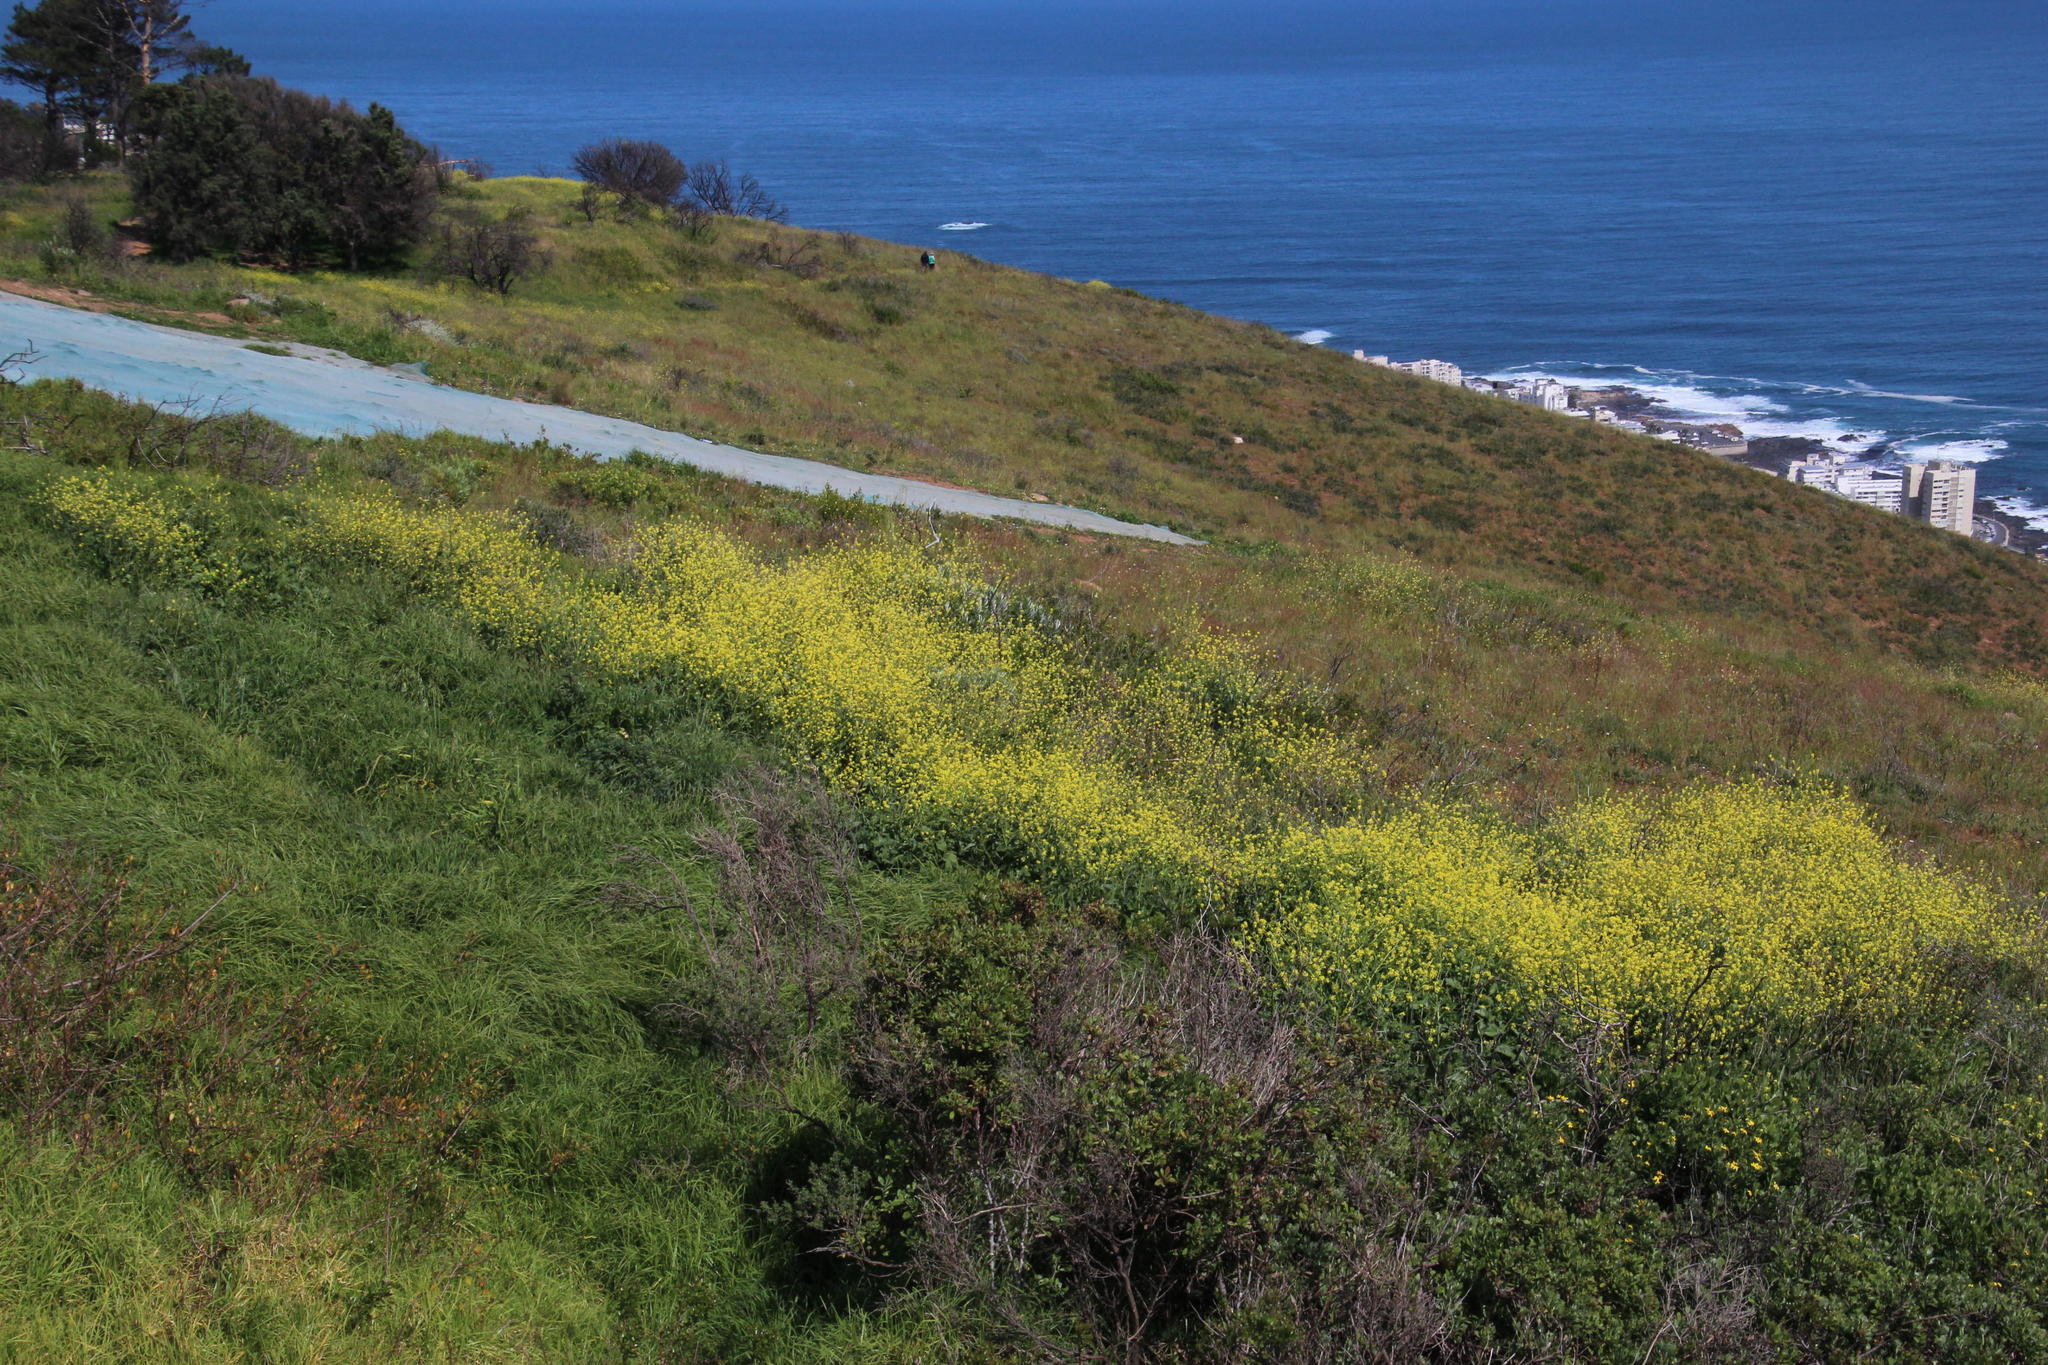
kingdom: Plantae
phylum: Tracheophyta
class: Magnoliopsida
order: Brassicales
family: Brassicaceae
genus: Rapistrum
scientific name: Rapistrum rugosum
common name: Annual bastardcabbage
